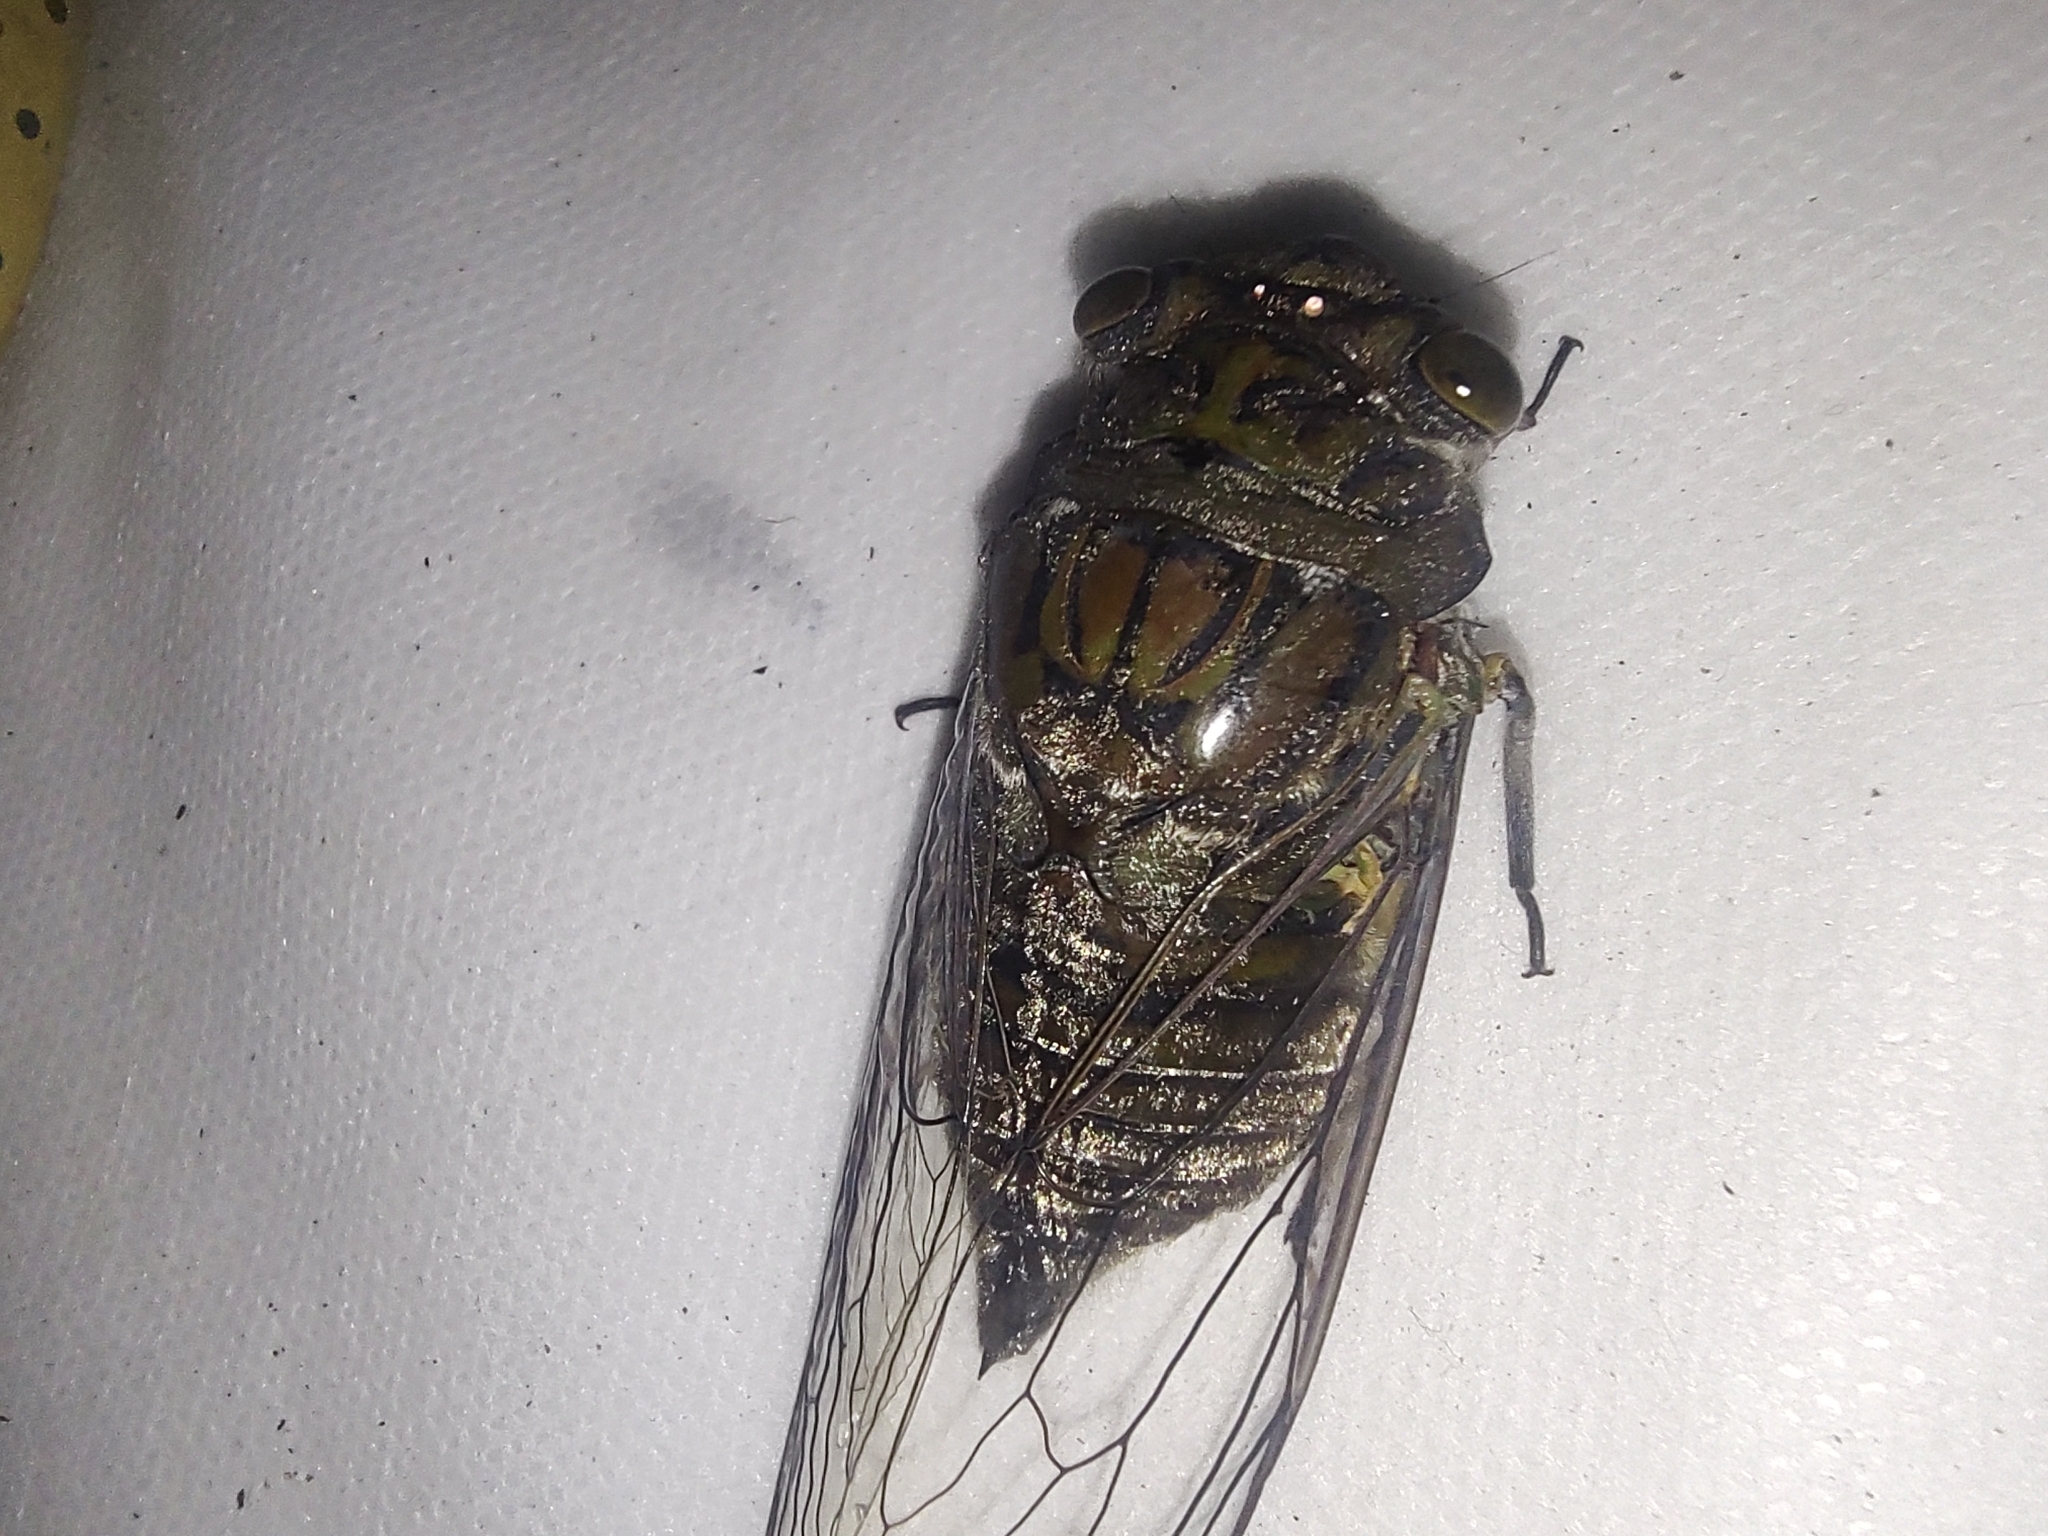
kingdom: Animalia
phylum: Arthropoda
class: Insecta
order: Hemiptera
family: Cicadidae
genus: Quesada
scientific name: Quesada gigas
